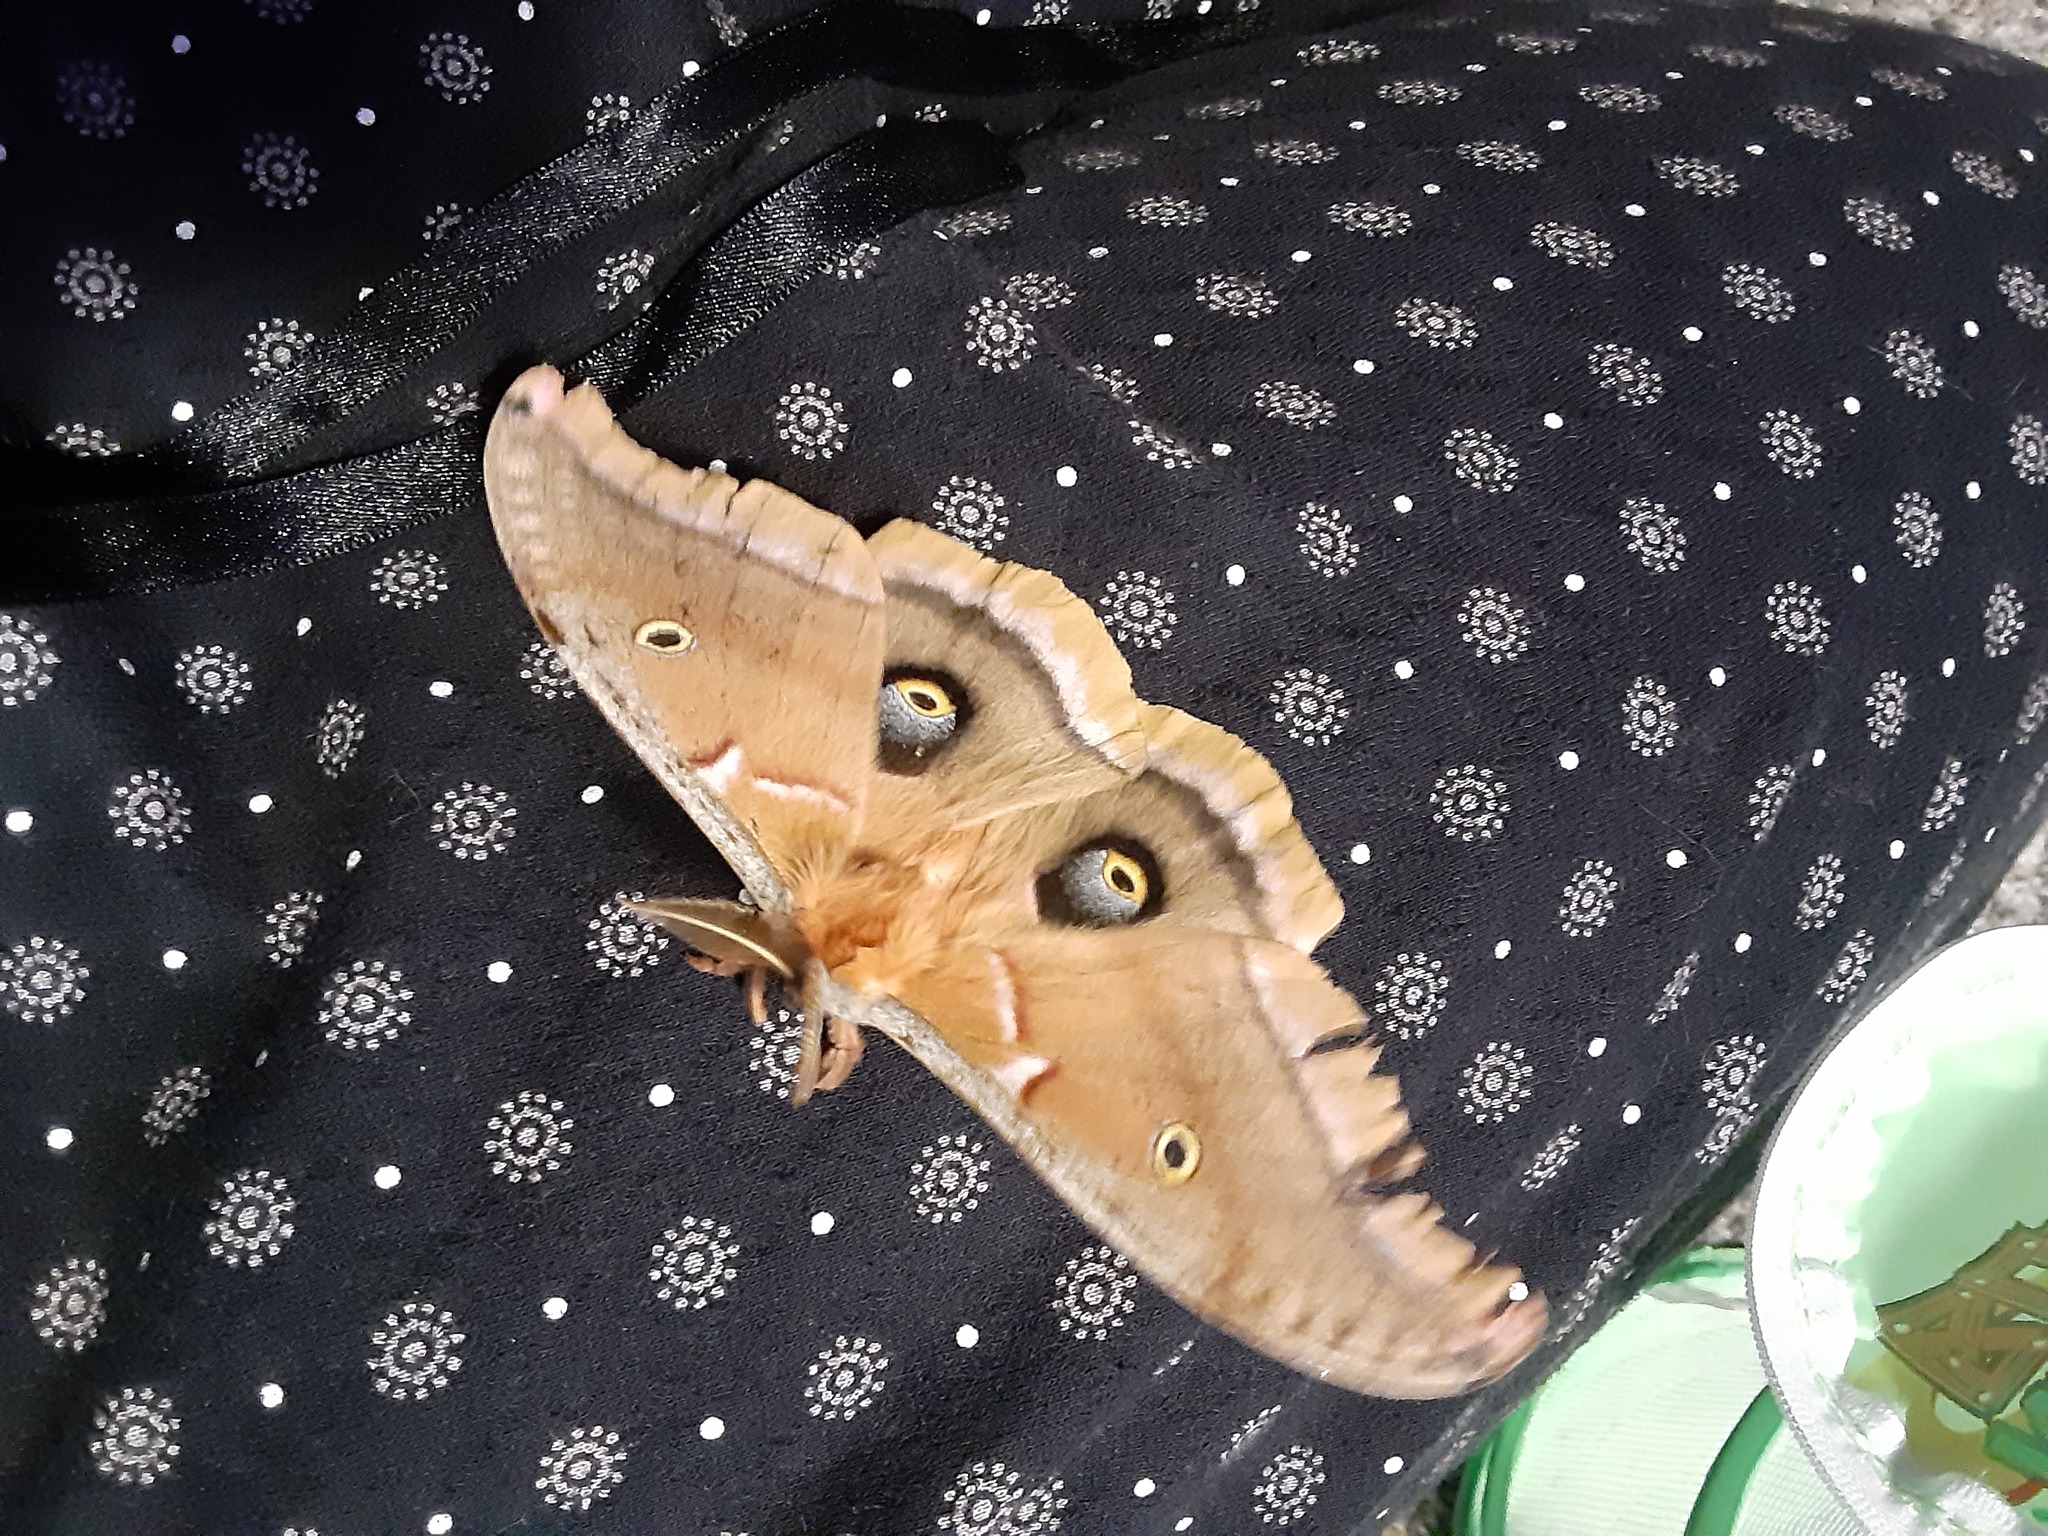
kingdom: Animalia
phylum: Arthropoda
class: Insecta
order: Lepidoptera
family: Saturniidae
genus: Antheraea
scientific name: Antheraea polyphemus
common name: Polyphemus moth
